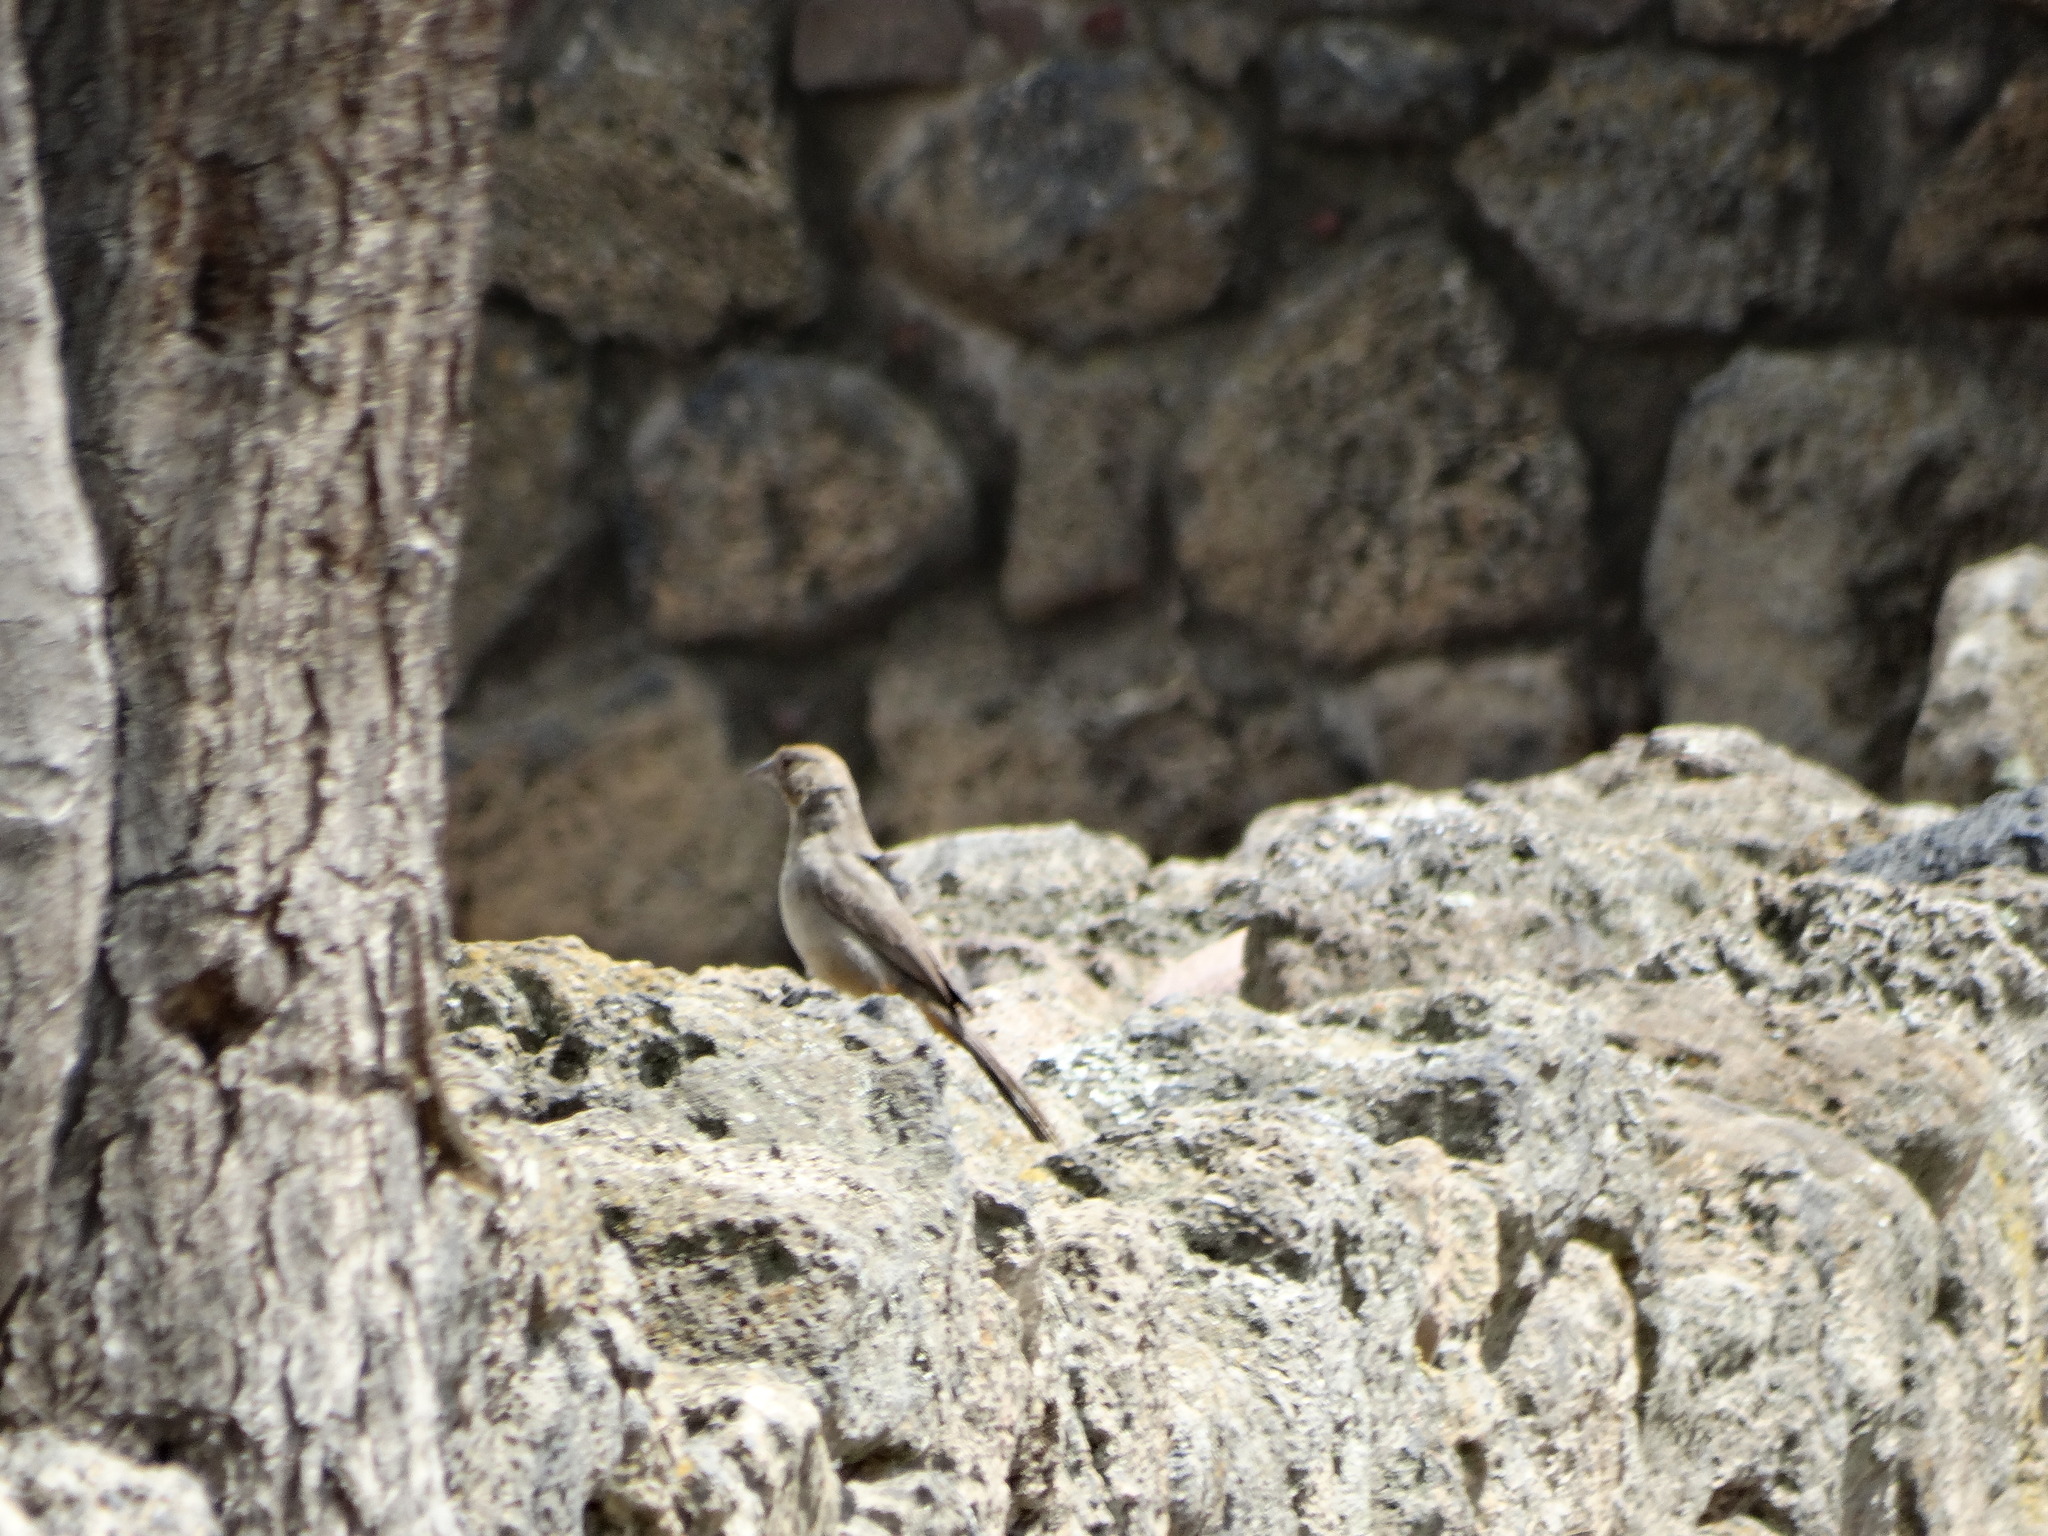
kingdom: Animalia
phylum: Chordata
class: Aves
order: Passeriformes
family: Passerellidae
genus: Melozone
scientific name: Melozone fusca
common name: Canyon towhee
